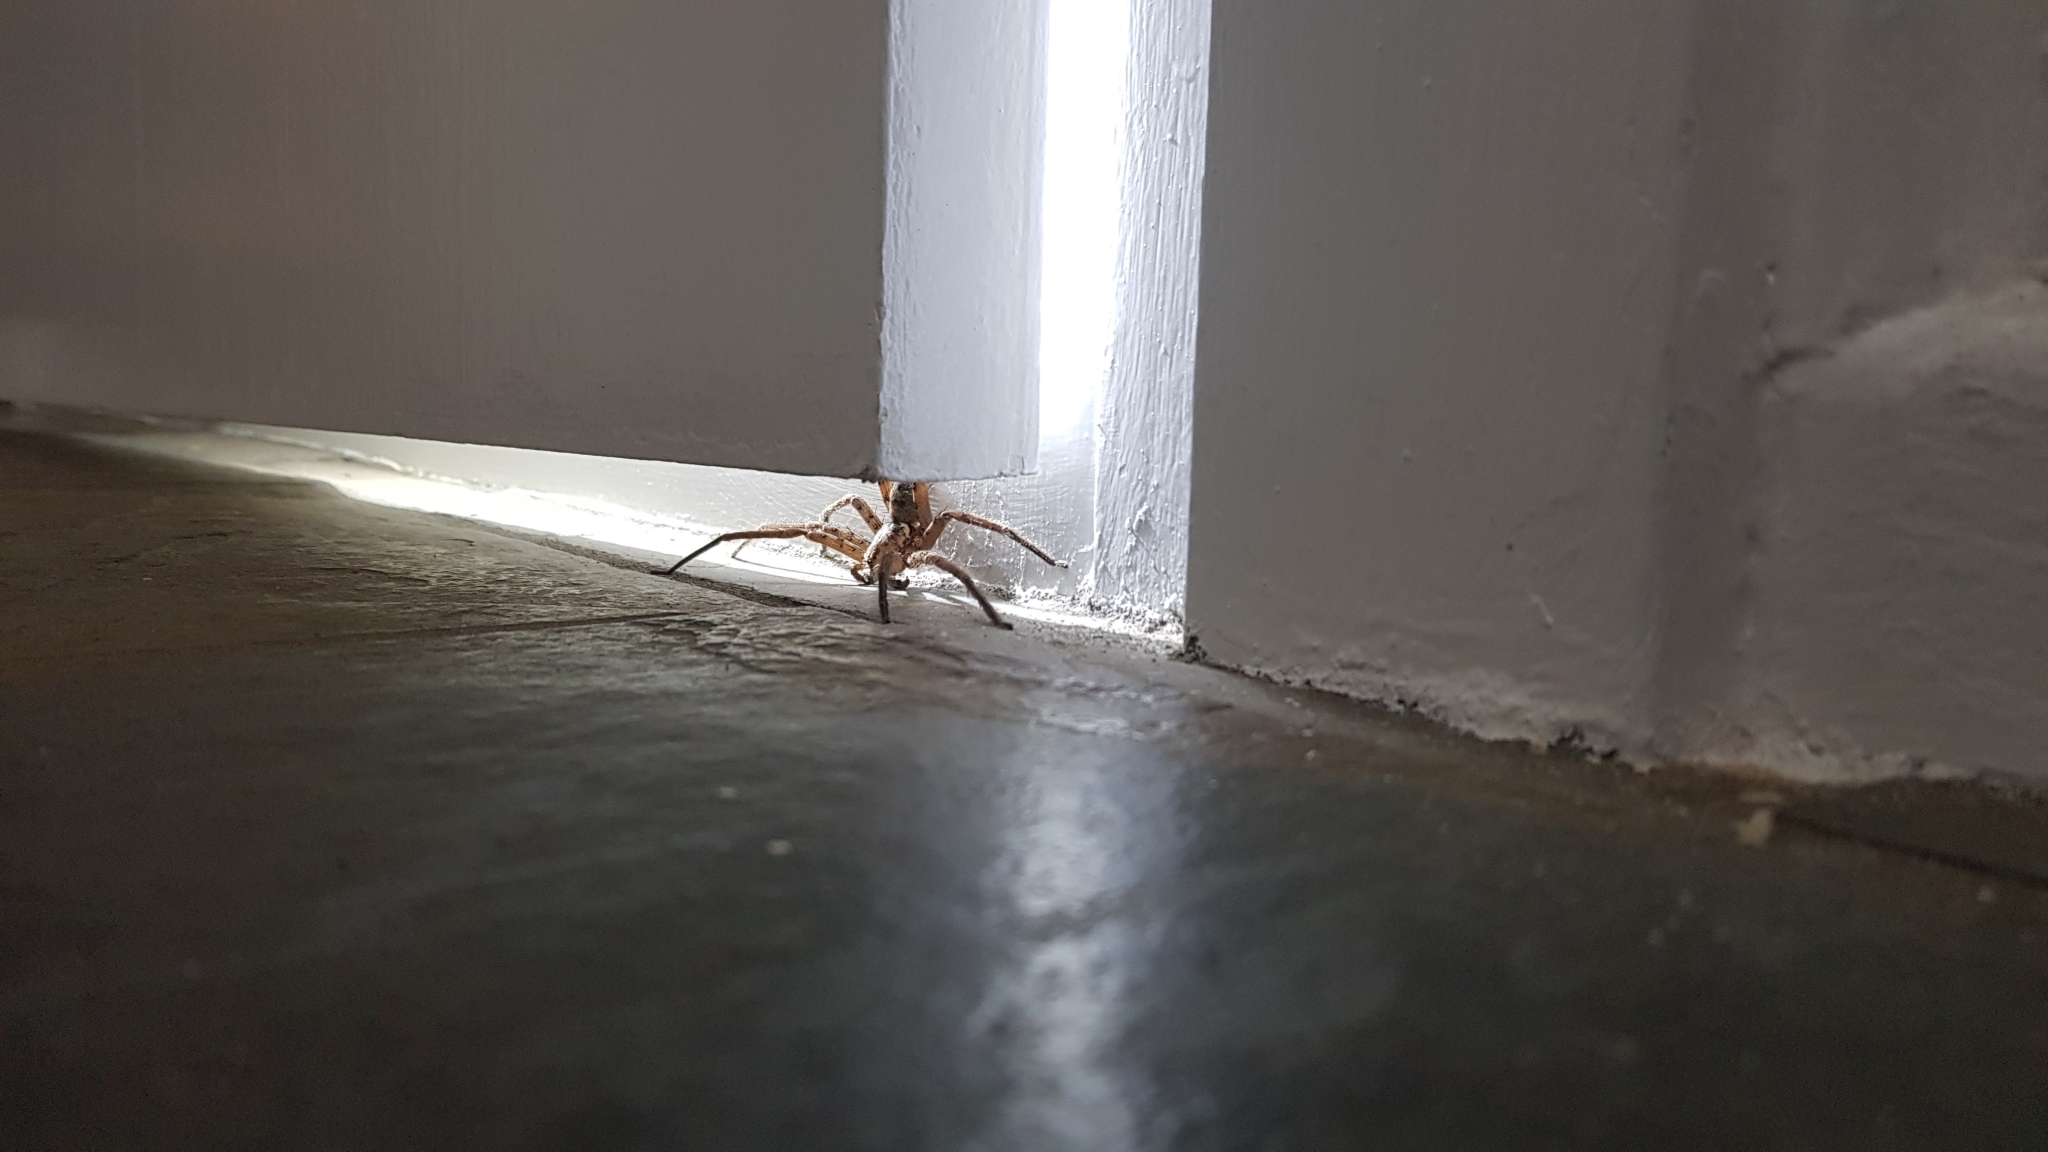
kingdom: Animalia
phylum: Arthropoda
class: Arachnida
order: Araneae
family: Sparassidae
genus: Heteropoda
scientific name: Heteropoda jugulans
